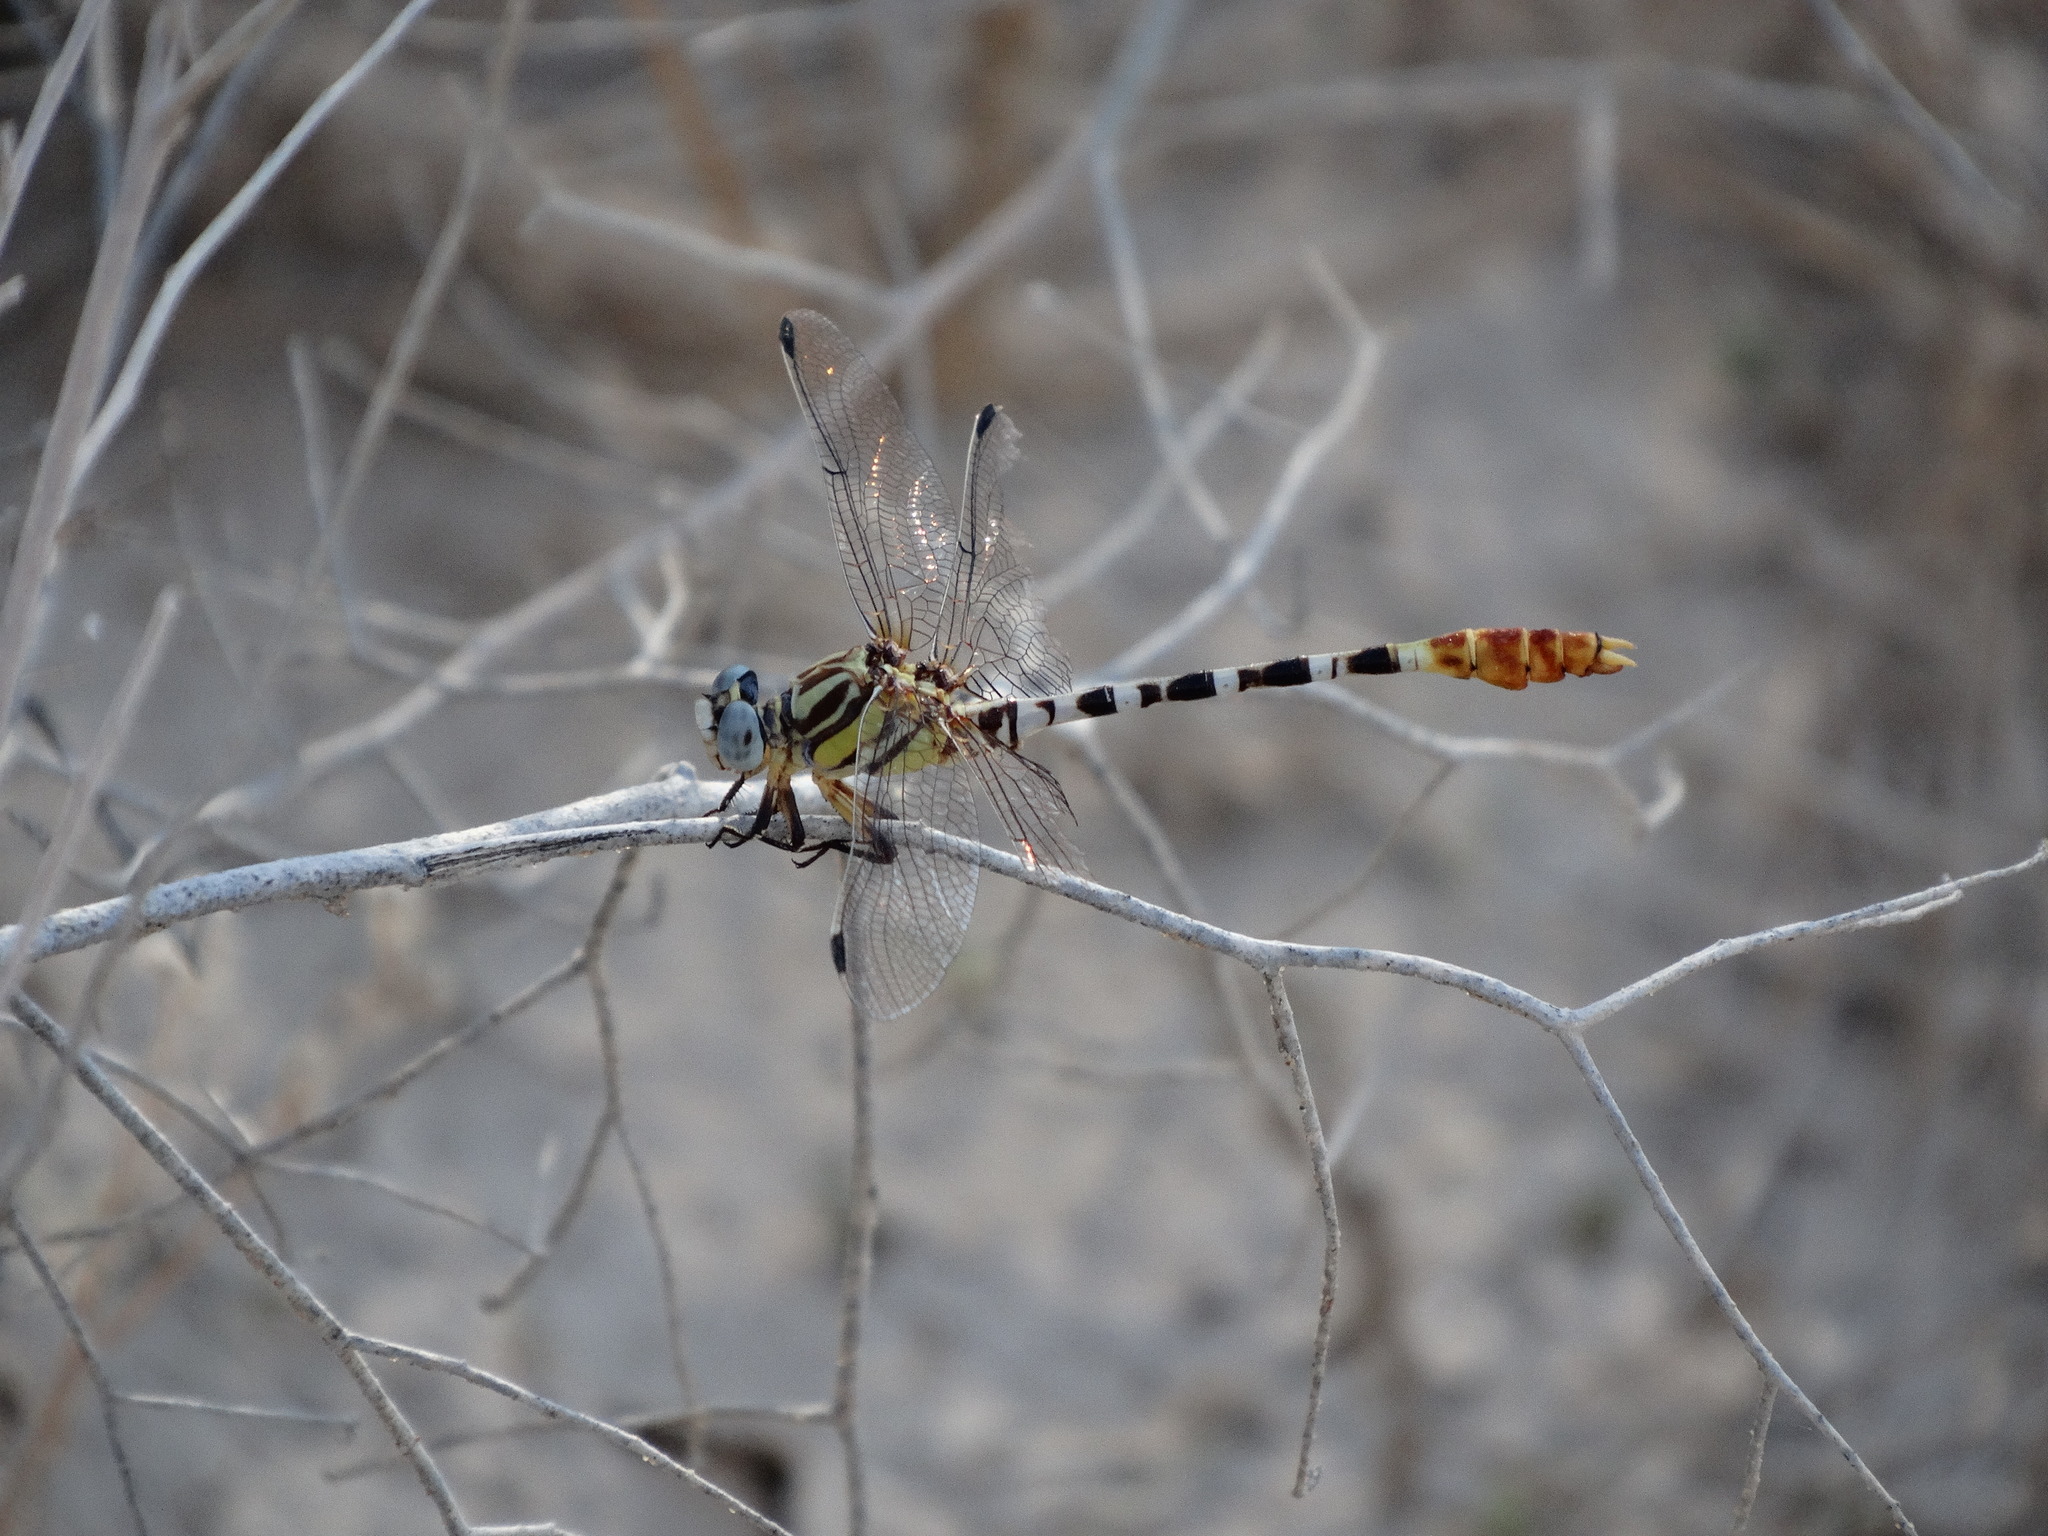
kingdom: Animalia
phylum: Arthropoda
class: Insecta
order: Odonata
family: Gomphidae
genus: Erpetogomphus
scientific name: Erpetogomphus compositus
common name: White-belted ringtail
